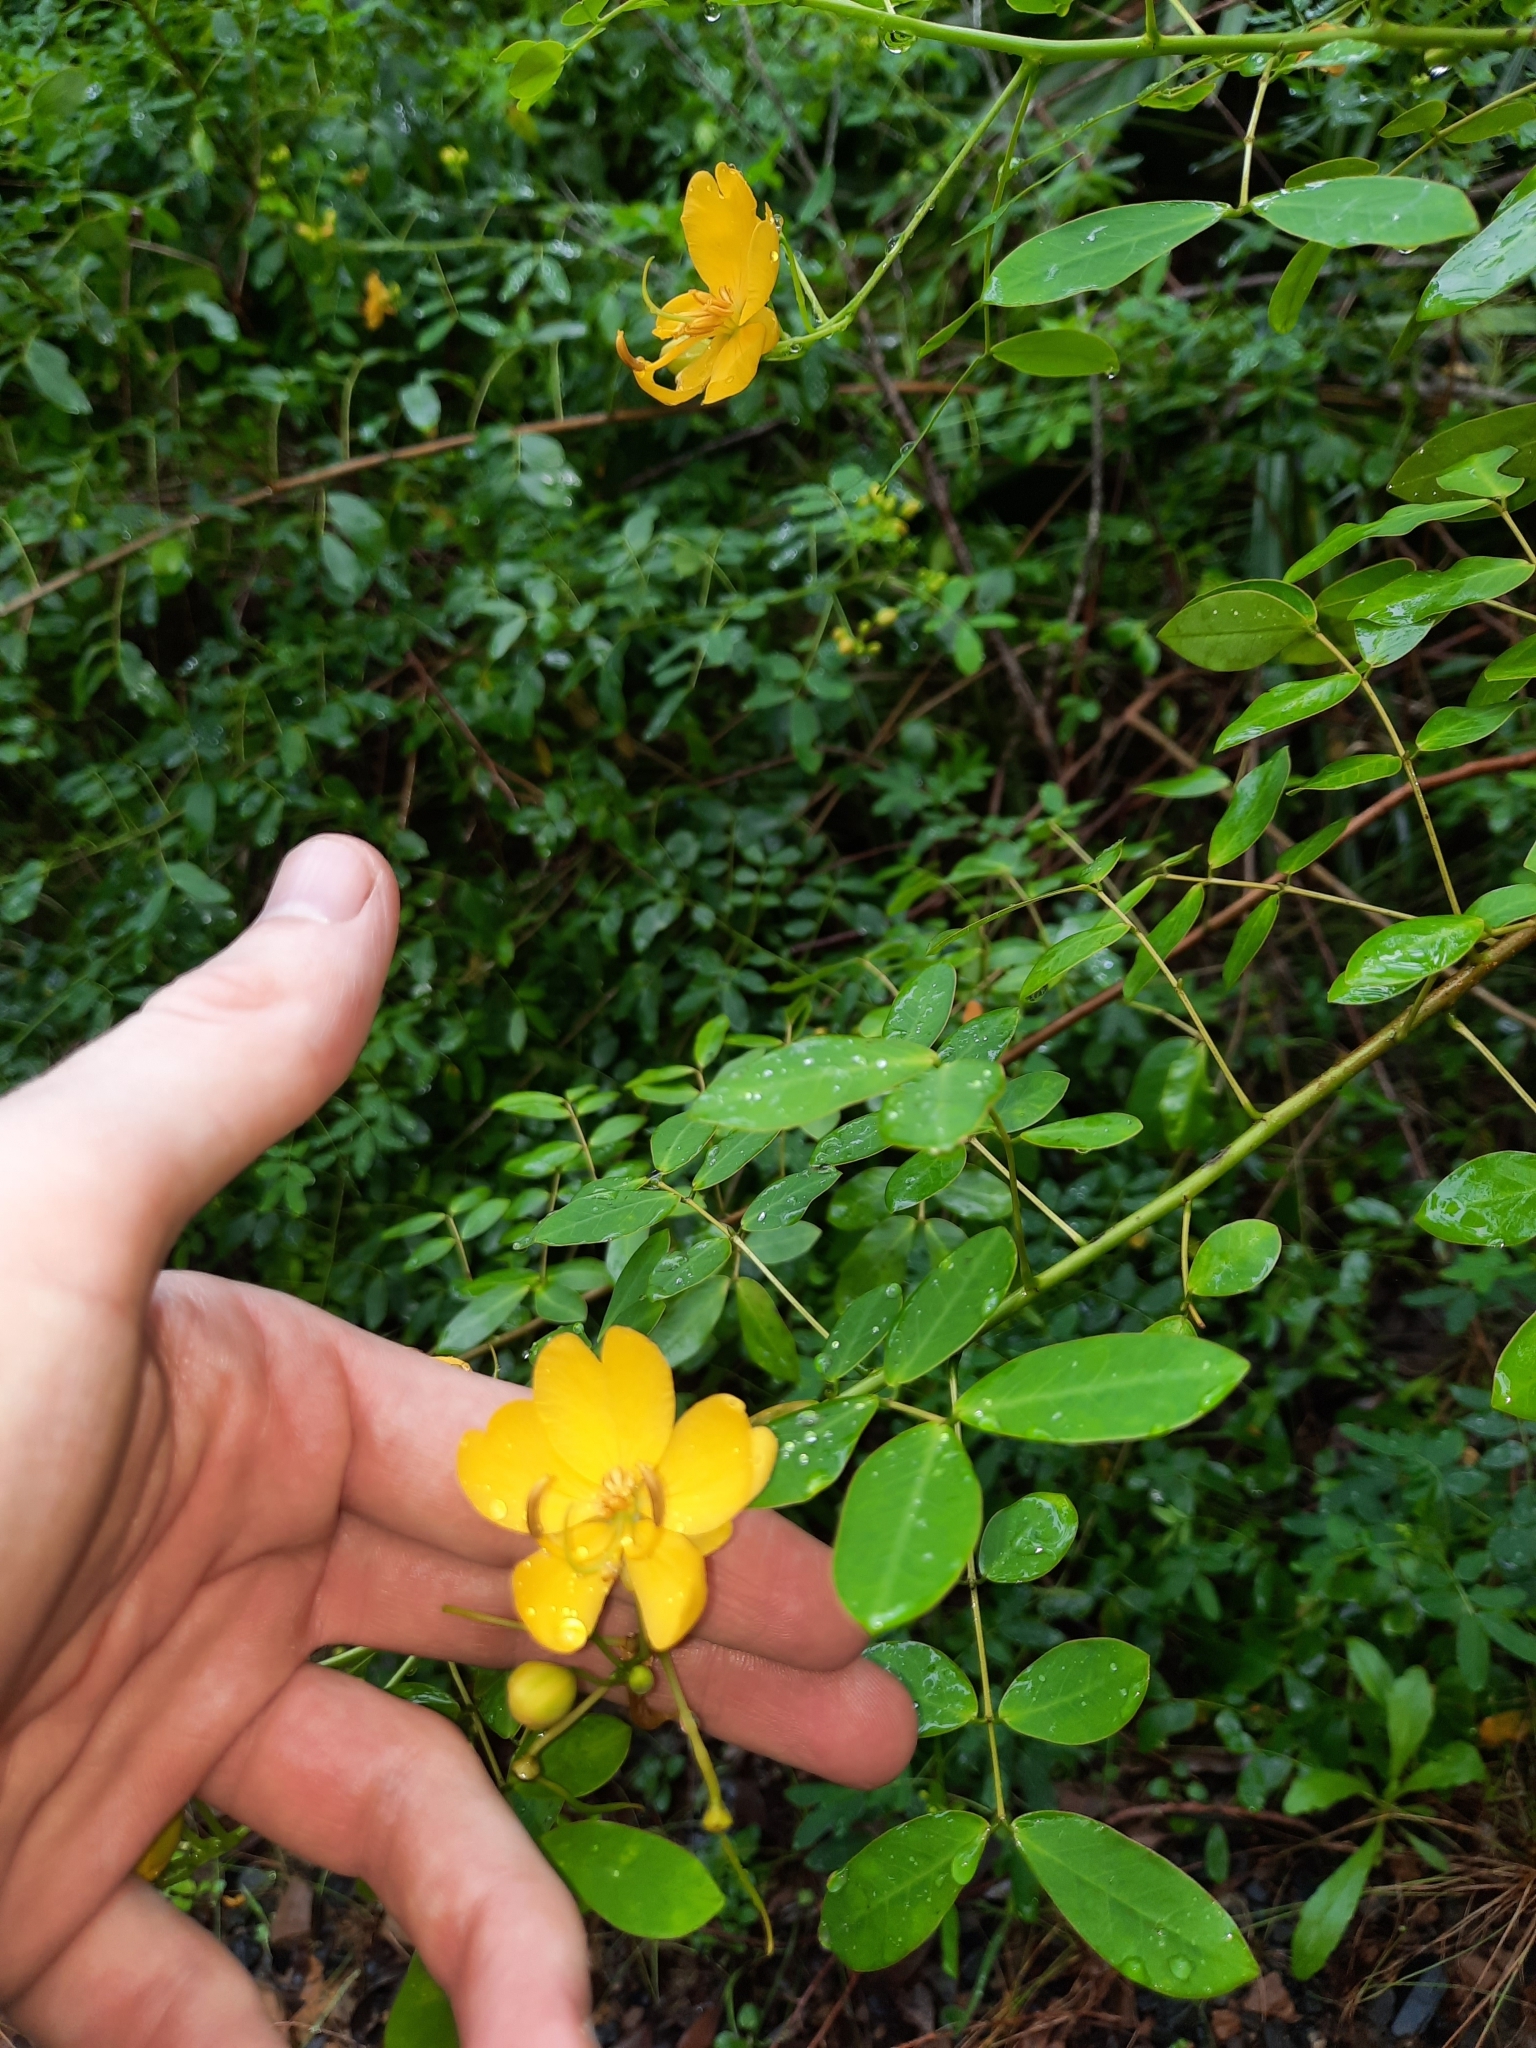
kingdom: Plantae
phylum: Tracheophyta
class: Magnoliopsida
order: Fabales
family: Fabaceae
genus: Senna
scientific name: Senna pendula
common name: Easter cassia
